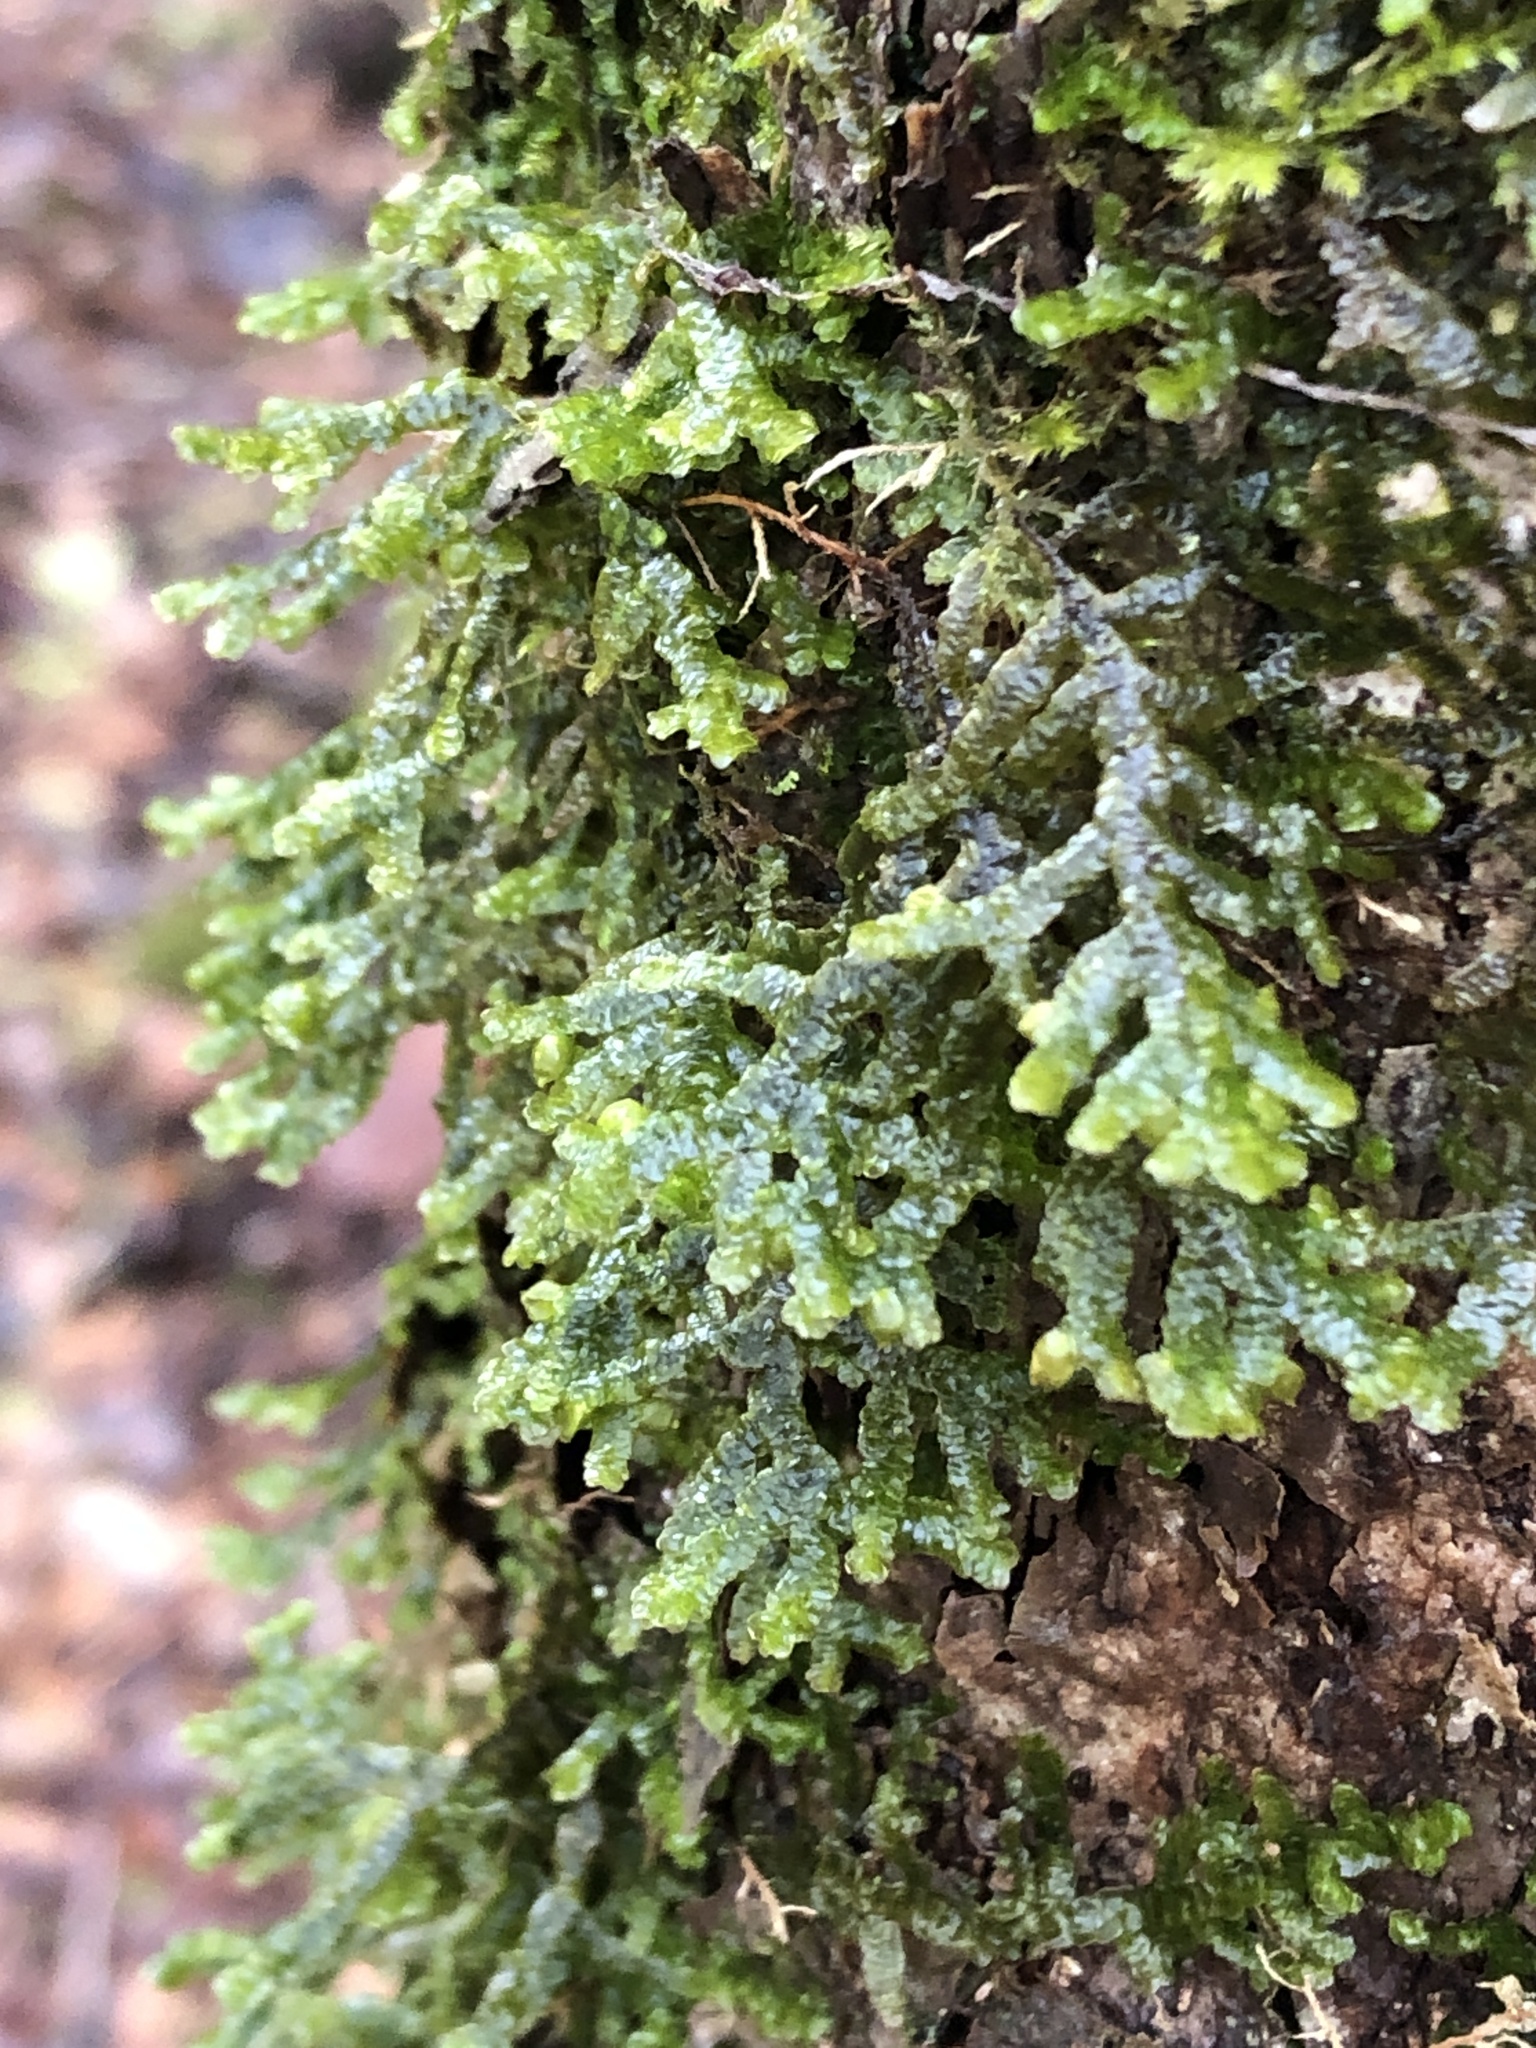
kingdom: Plantae
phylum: Marchantiophyta
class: Jungermanniopsida
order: Porellales
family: Porellaceae
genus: Porella
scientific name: Porella platyphylla
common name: Wall scalewort
